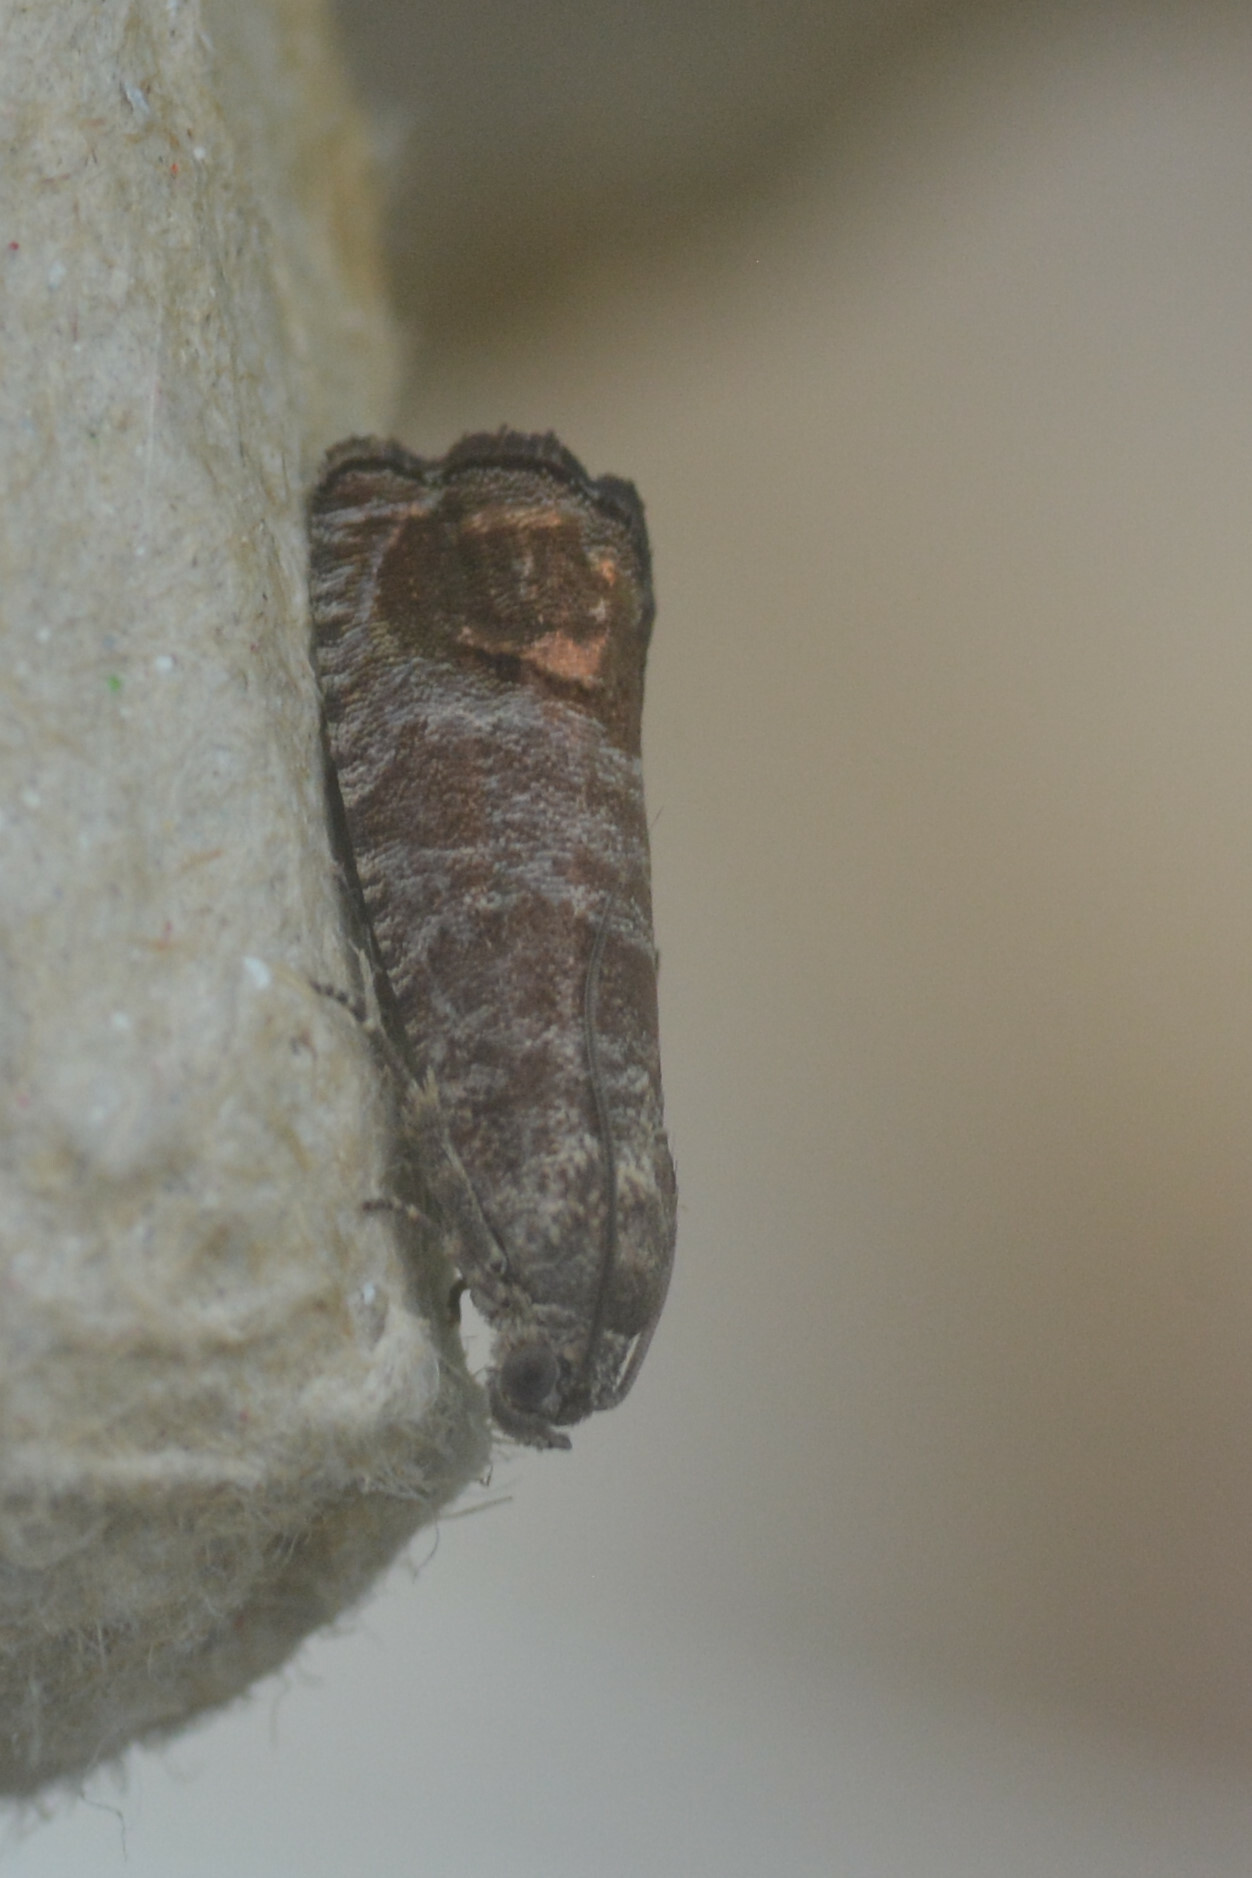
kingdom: Animalia
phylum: Arthropoda
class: Insecta
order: Lepidoptera
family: Tortricidae
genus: Cydia
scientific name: Cydia pomonella
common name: Codling moth
